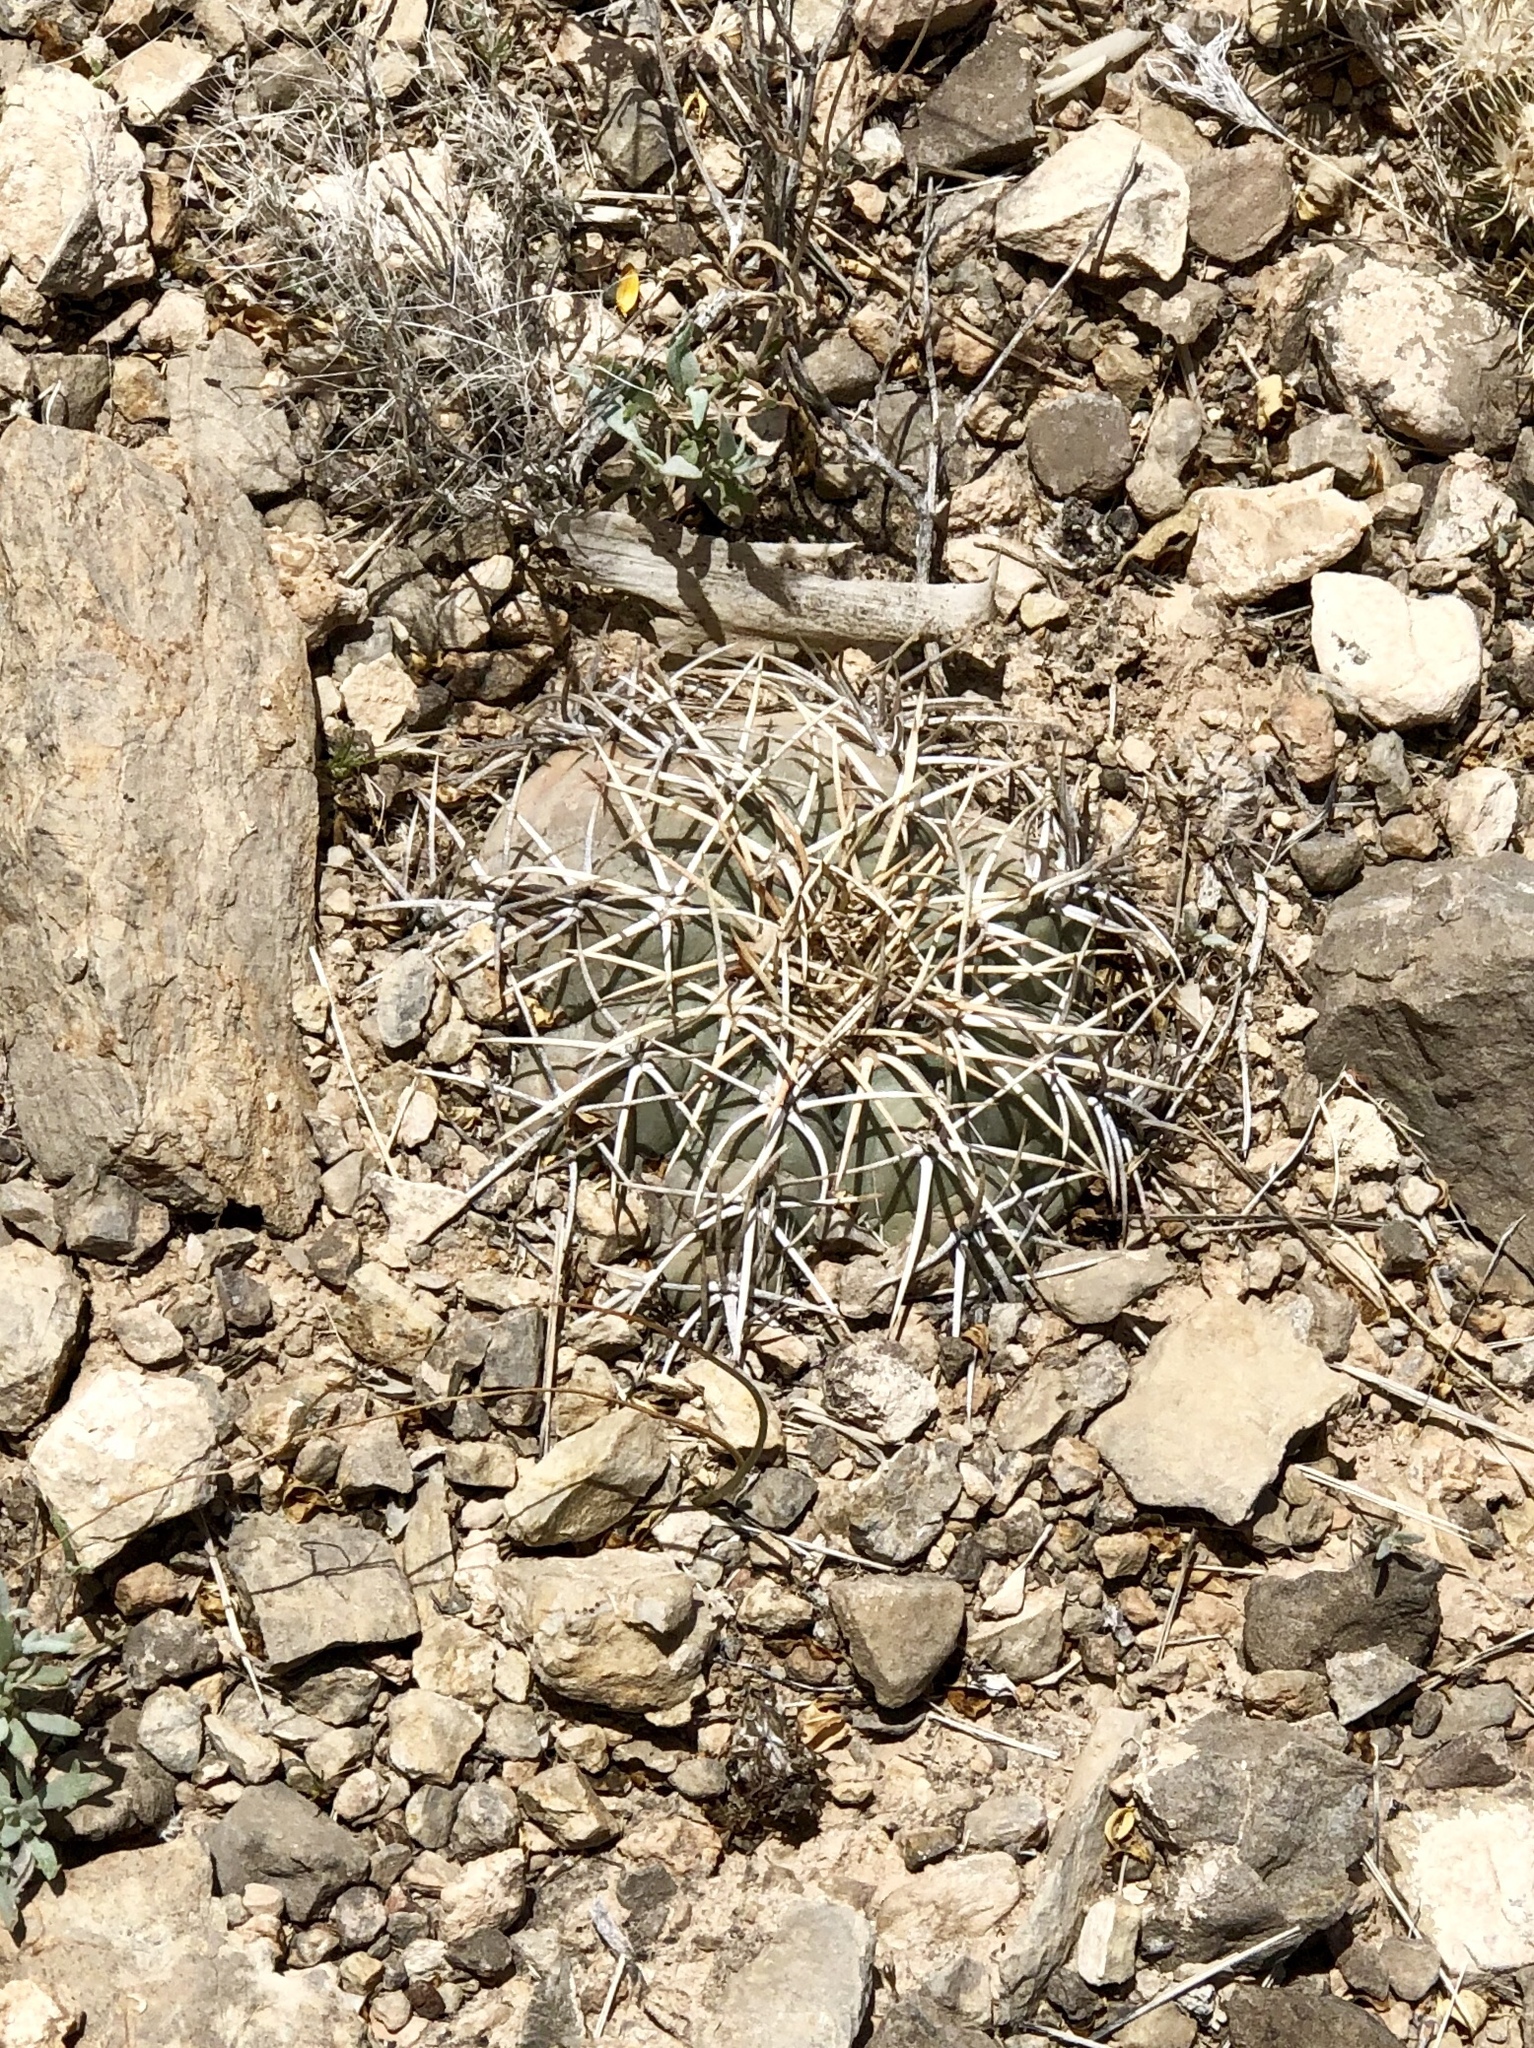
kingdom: Plantae
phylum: Tracheophyta
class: Magnoliopsida
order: Caryophyllales
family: Cactaceae
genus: Echinocactus
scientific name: Echinocactus horizonthalonius
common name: Devilshead
